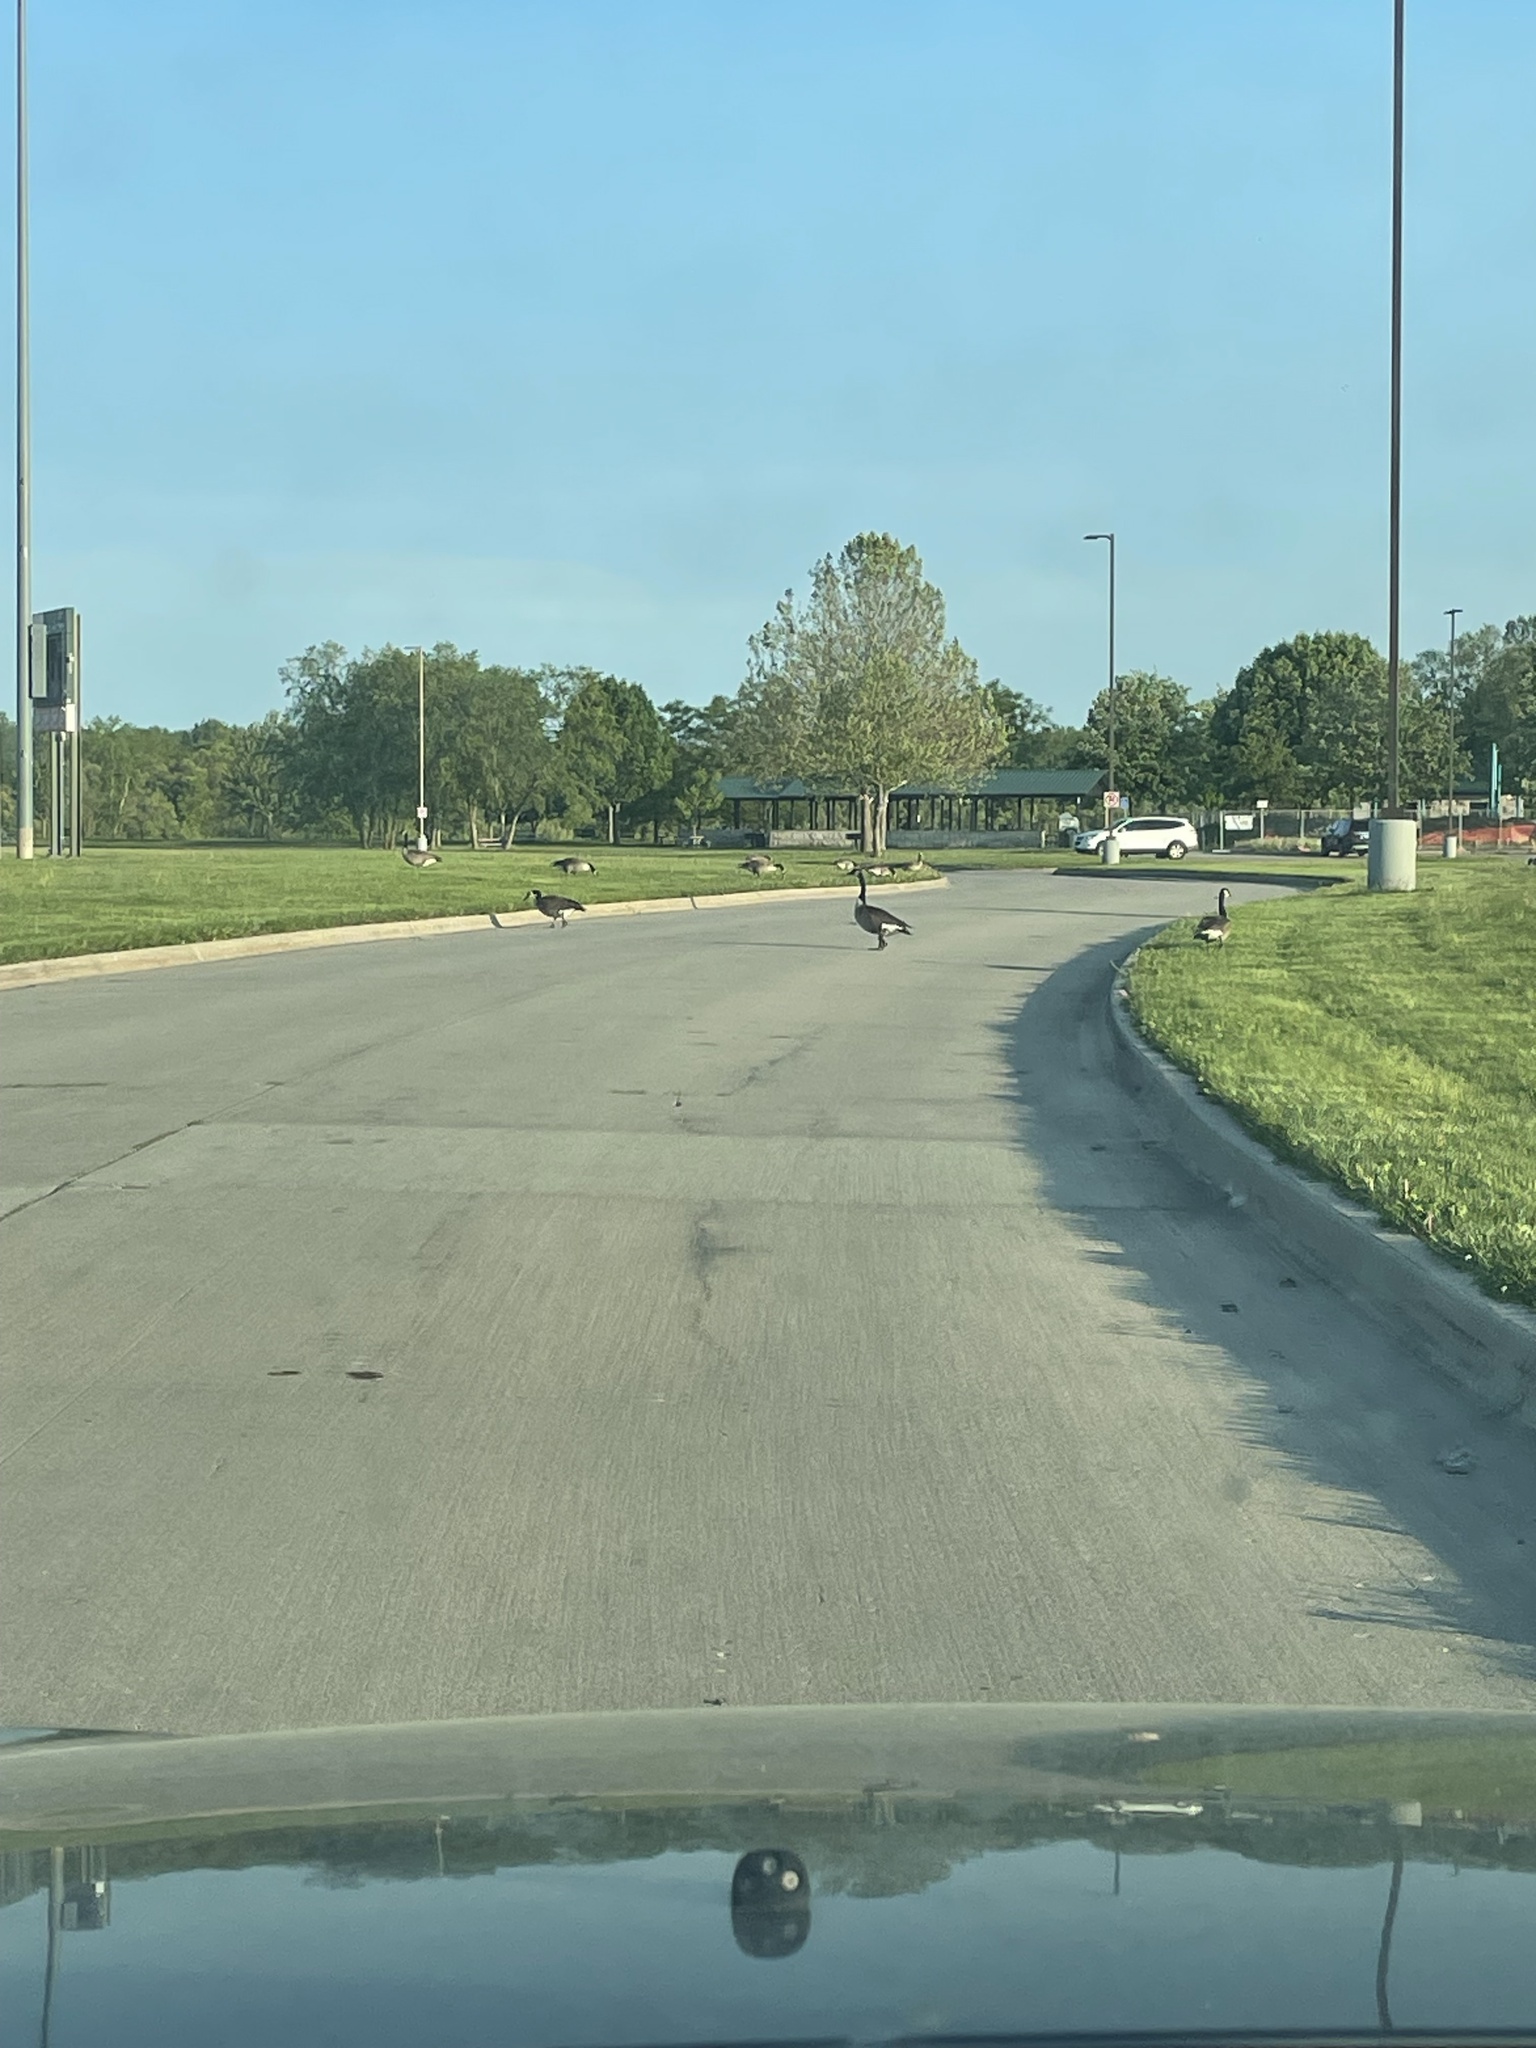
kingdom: Animalia
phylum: Chordata
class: Aves
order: Anseriformes
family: Anatidae
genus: Branta
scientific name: Branta canadensis
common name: Canada goose
